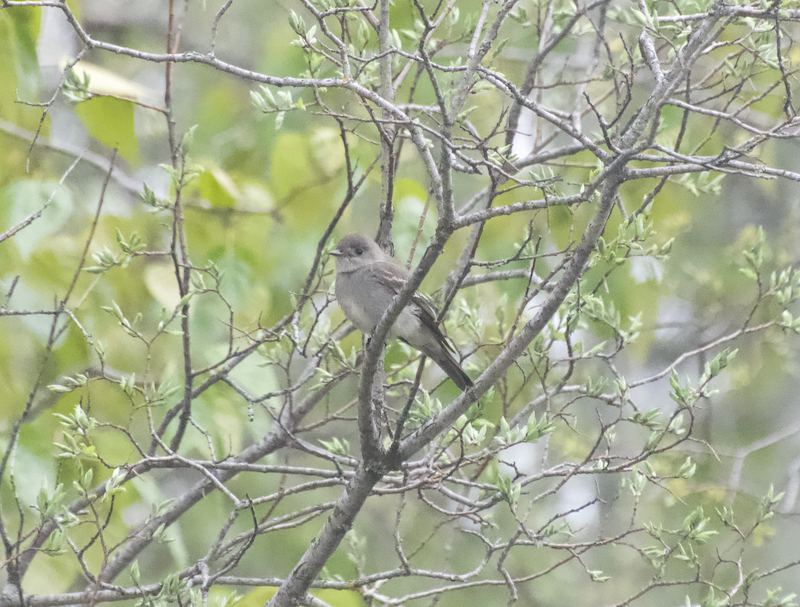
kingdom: Animalia
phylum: Chordata
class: Aves
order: Passeriformes
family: Tyrannidae
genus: Contopus
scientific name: Contopus sordidulus
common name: Western wood-pewee
